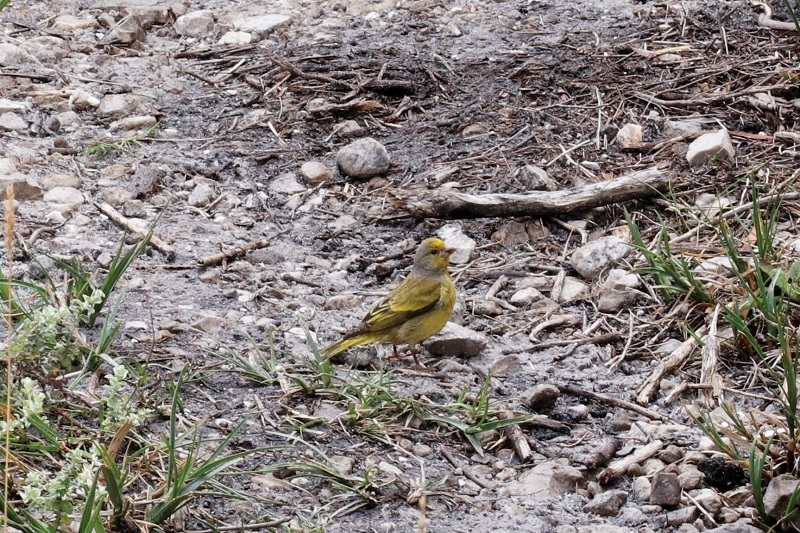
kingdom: Animalia
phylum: Chordata
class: Aves
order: Passeriformes
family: Fringillidae
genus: Serinus
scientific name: Serinus canicollis
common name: Cape canary
